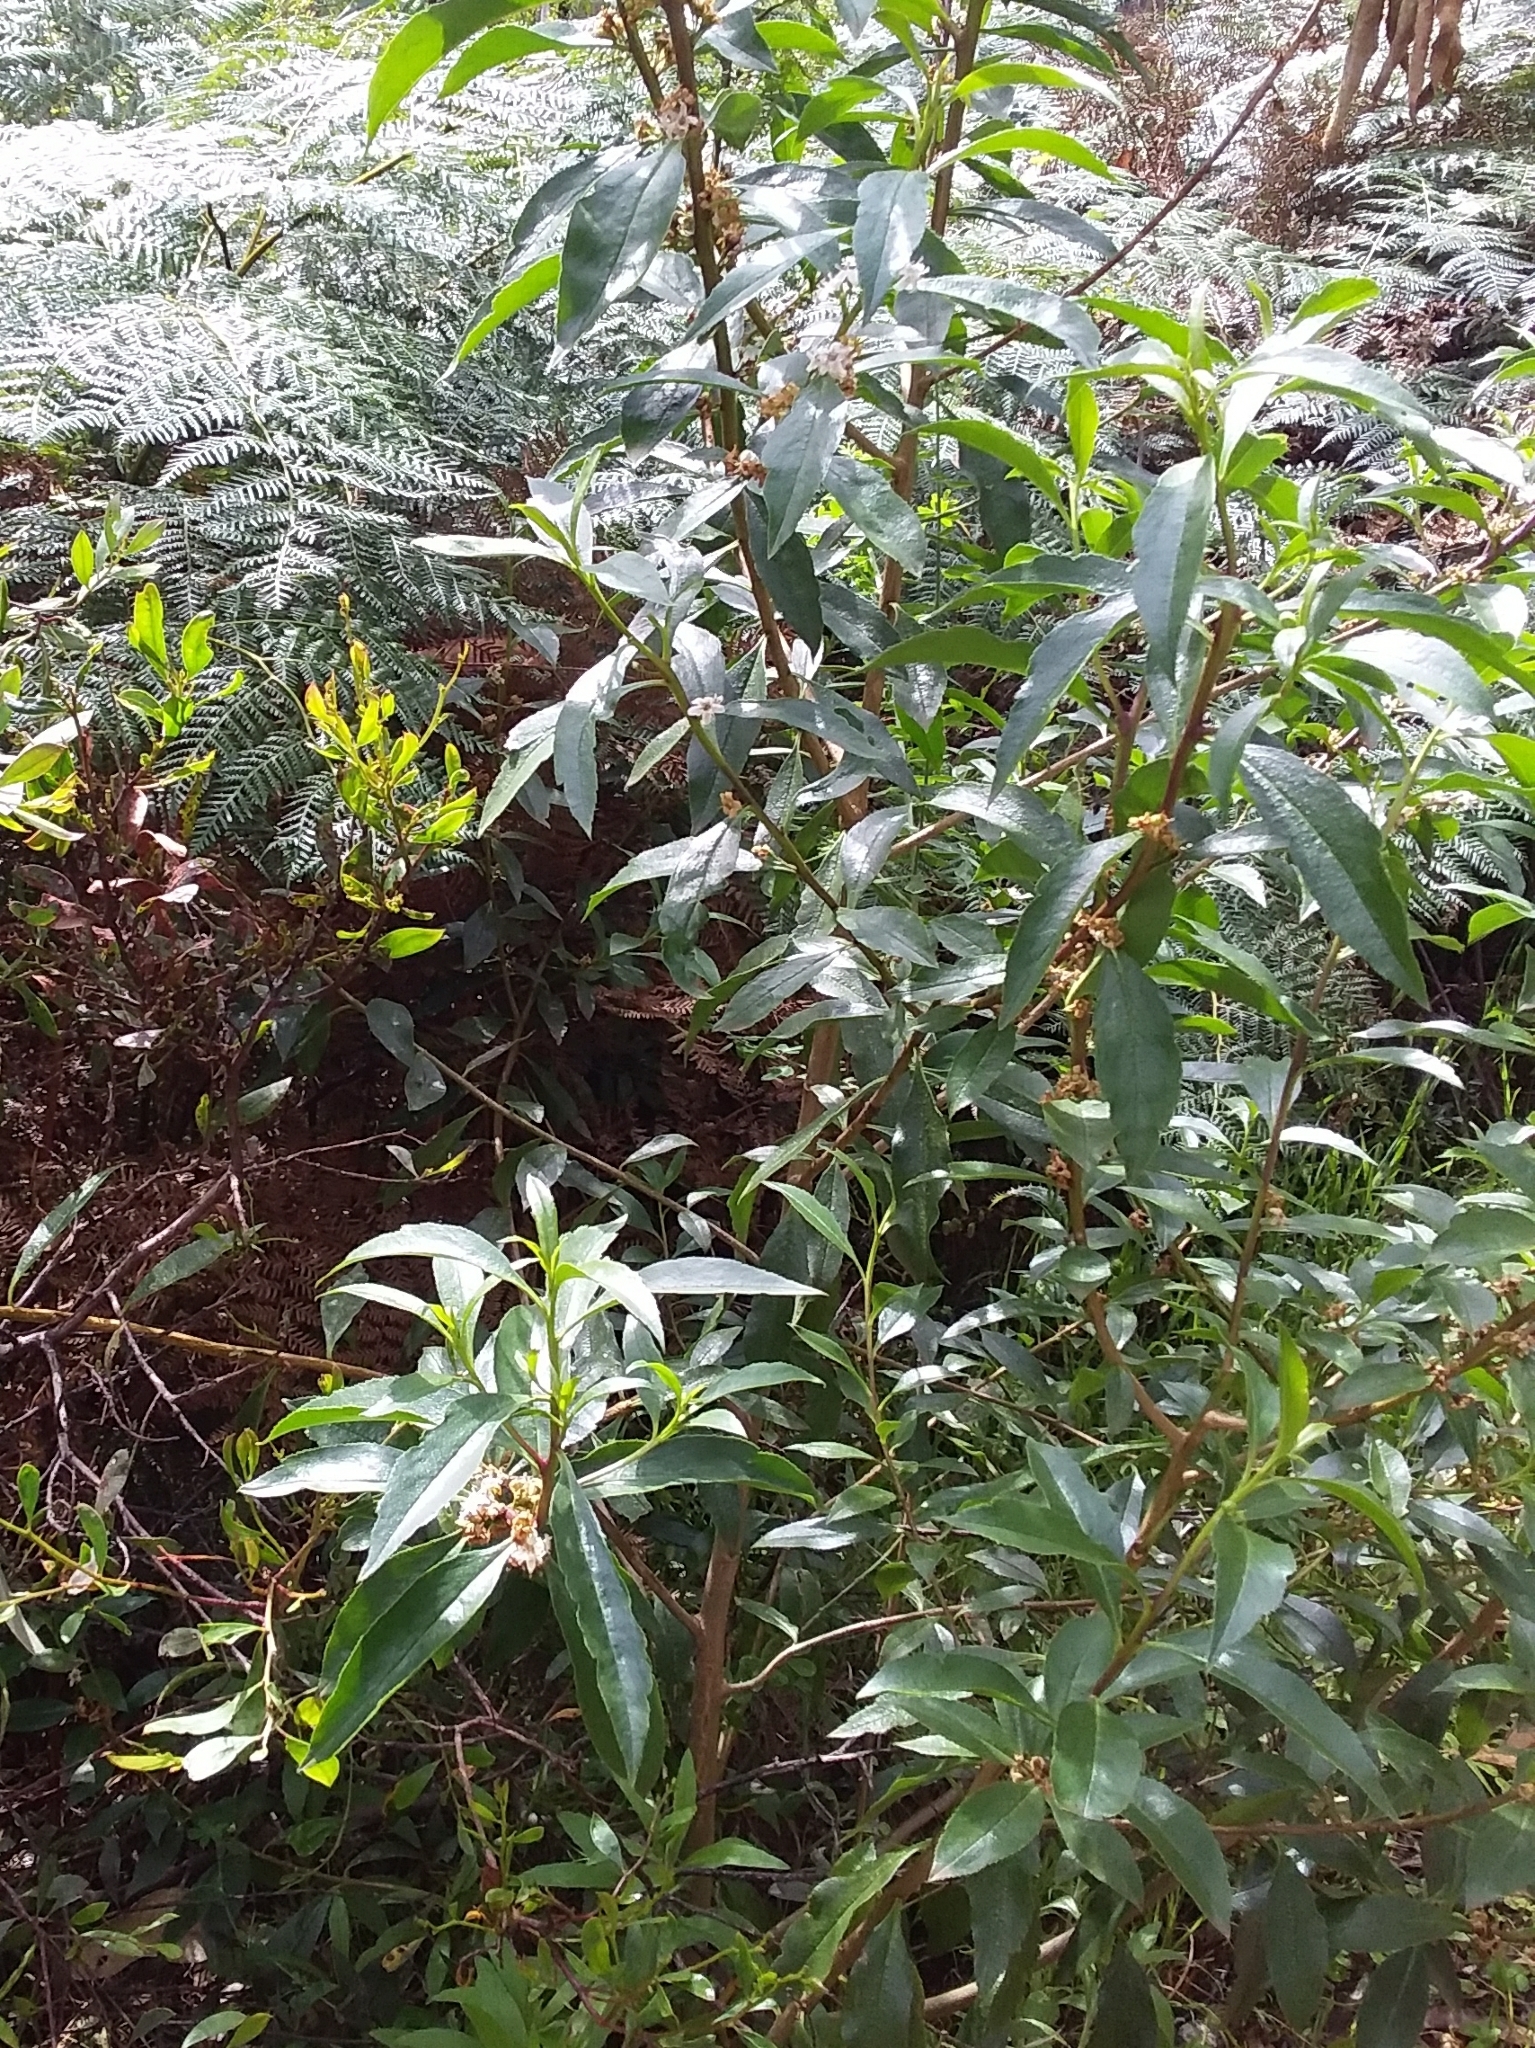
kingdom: Plantae
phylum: Tracheophyta
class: Magnoliopsida
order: Lamiales
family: Scrophulariaceae
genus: Myoporum
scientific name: Myoporum petiolatum
